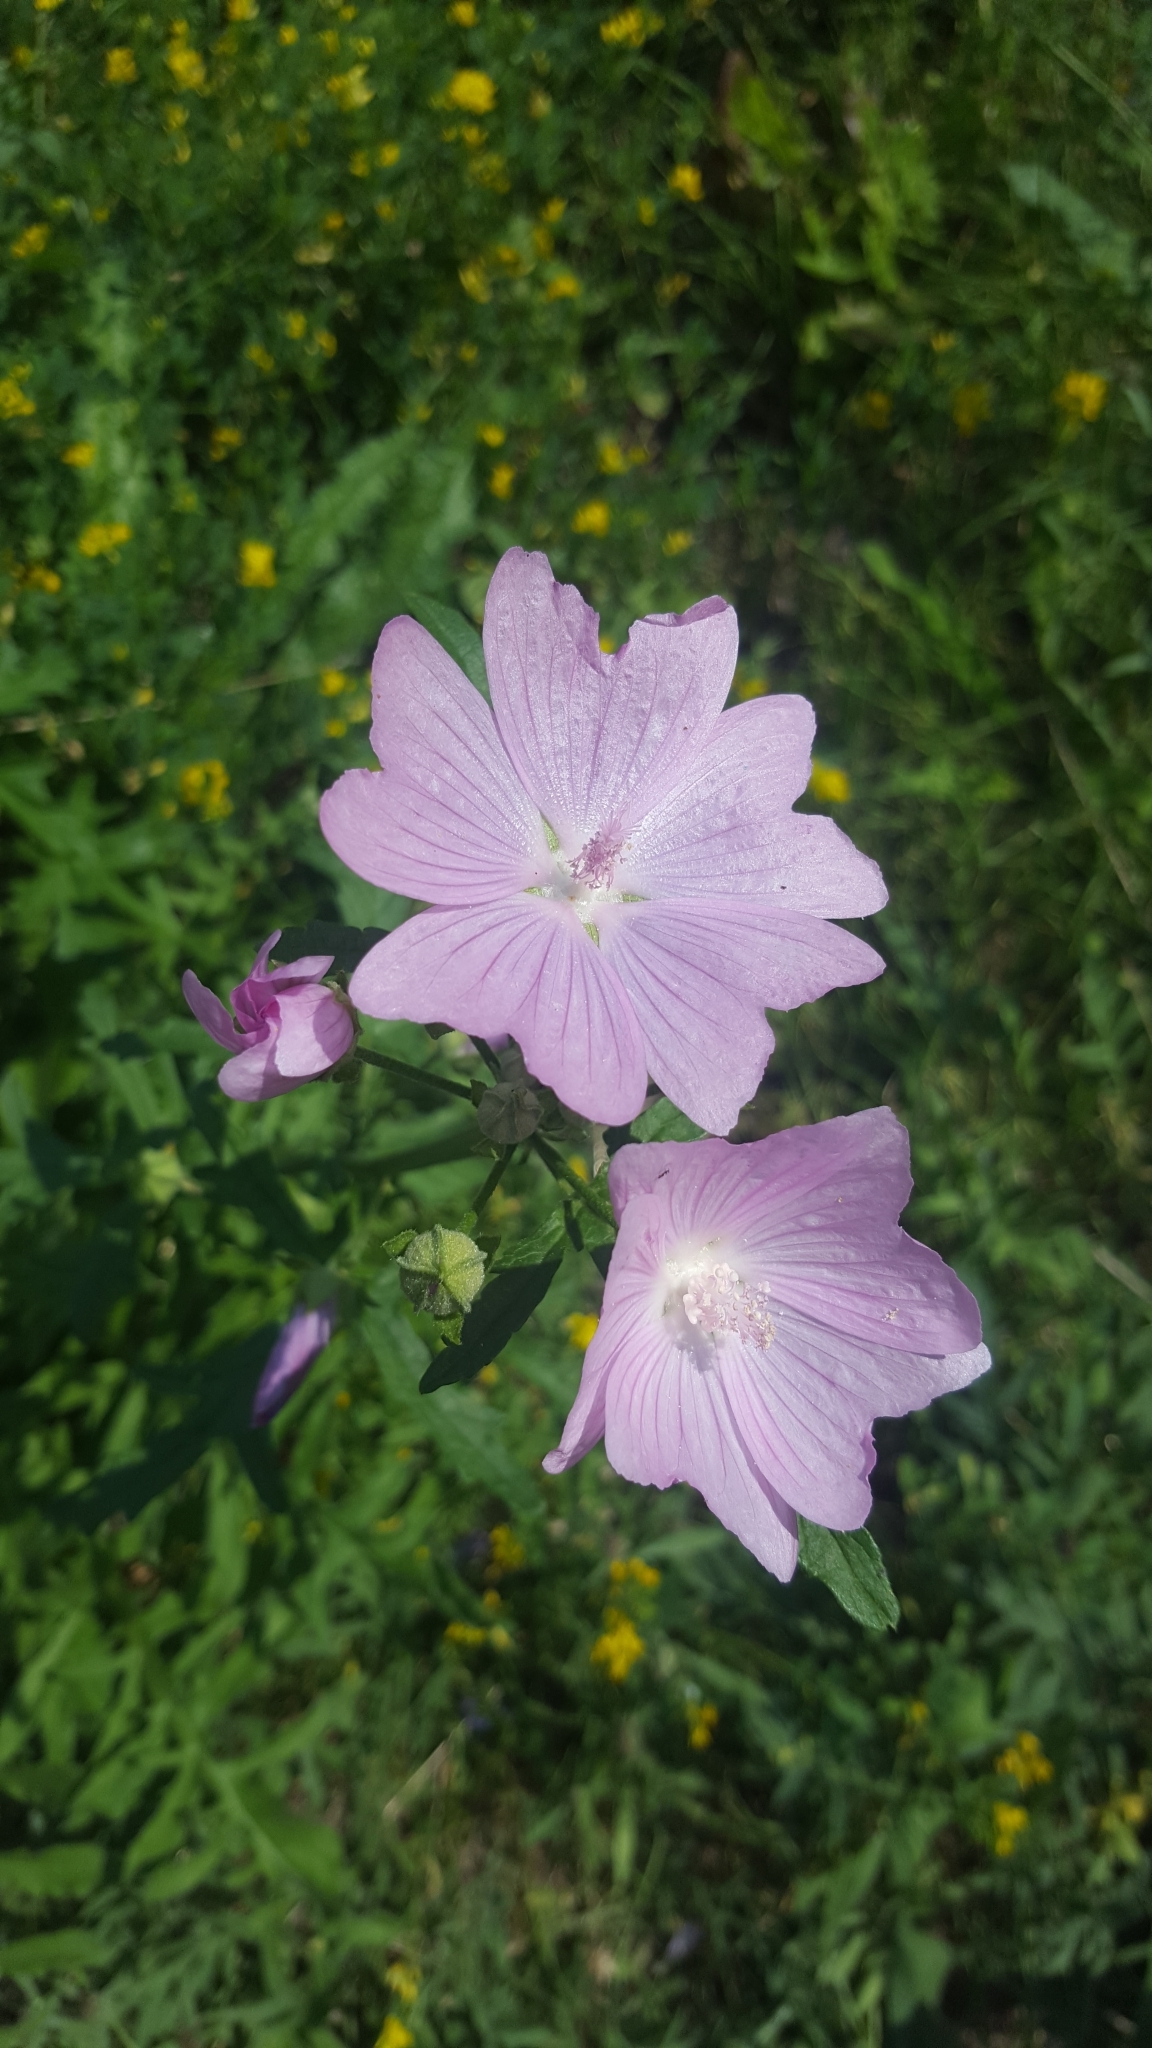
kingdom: Plantae
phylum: Tracheophyta
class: Magnoliopsida
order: Malvales
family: Malvaceae
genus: Malva
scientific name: Malva alcea
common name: Greater musk-mallow
